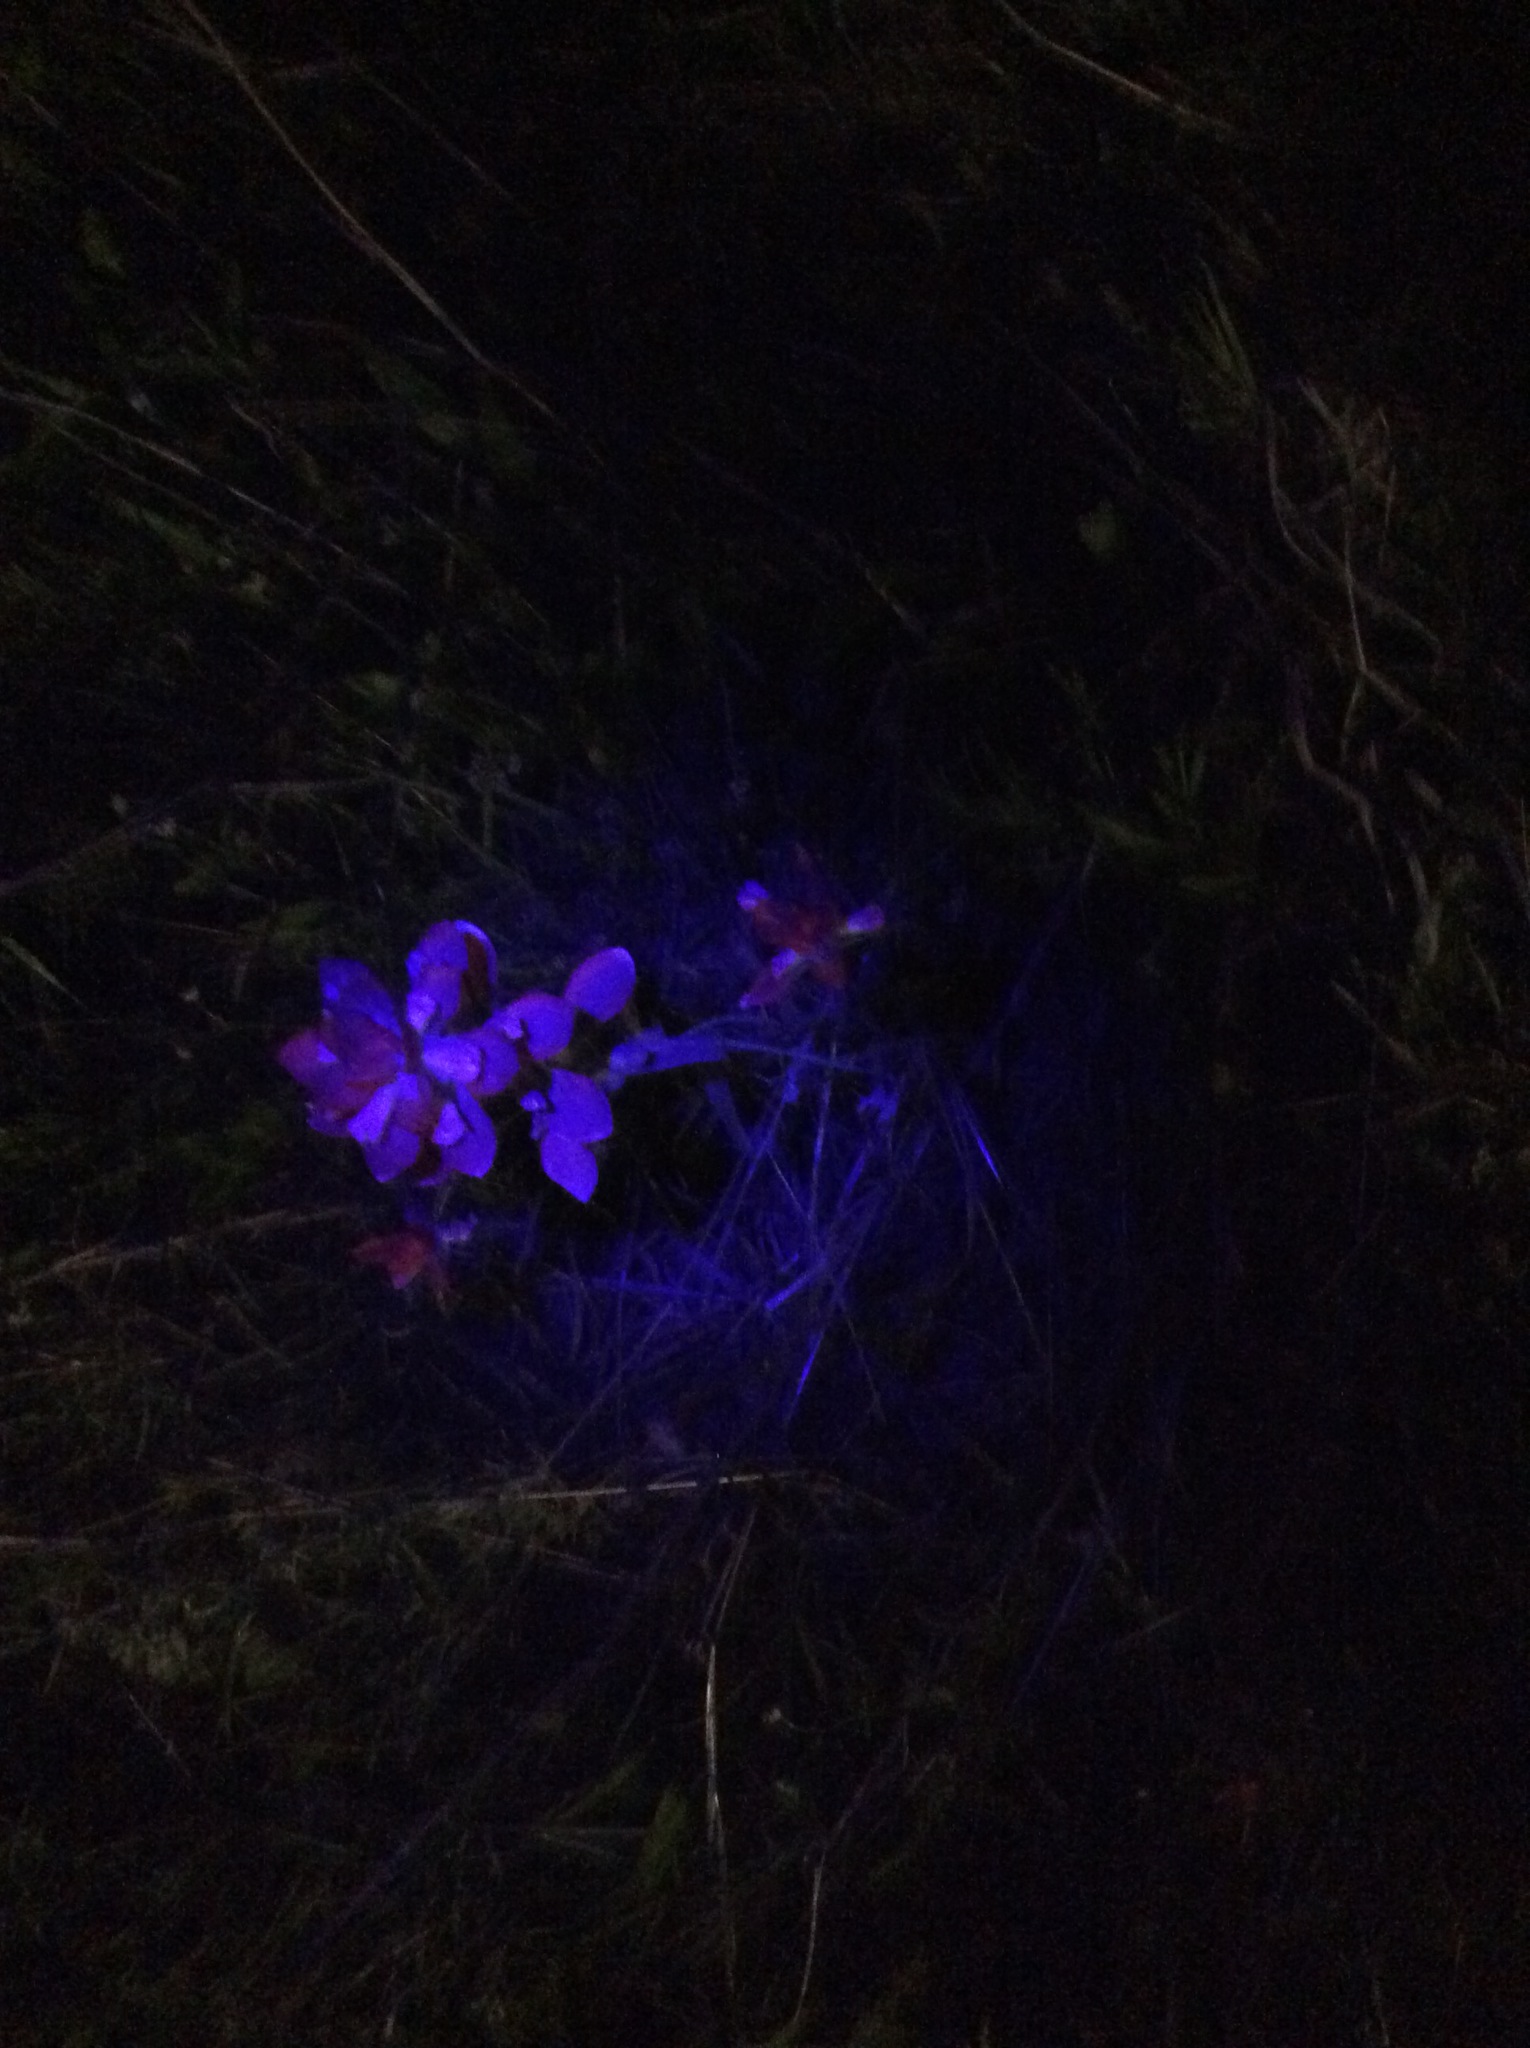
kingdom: Plantae
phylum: Tracheophyta
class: Magnoliopsida
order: Lamiales
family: Orobanchaceae
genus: Castilleja
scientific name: Castilleja indivisa
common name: Texas paintbrush
